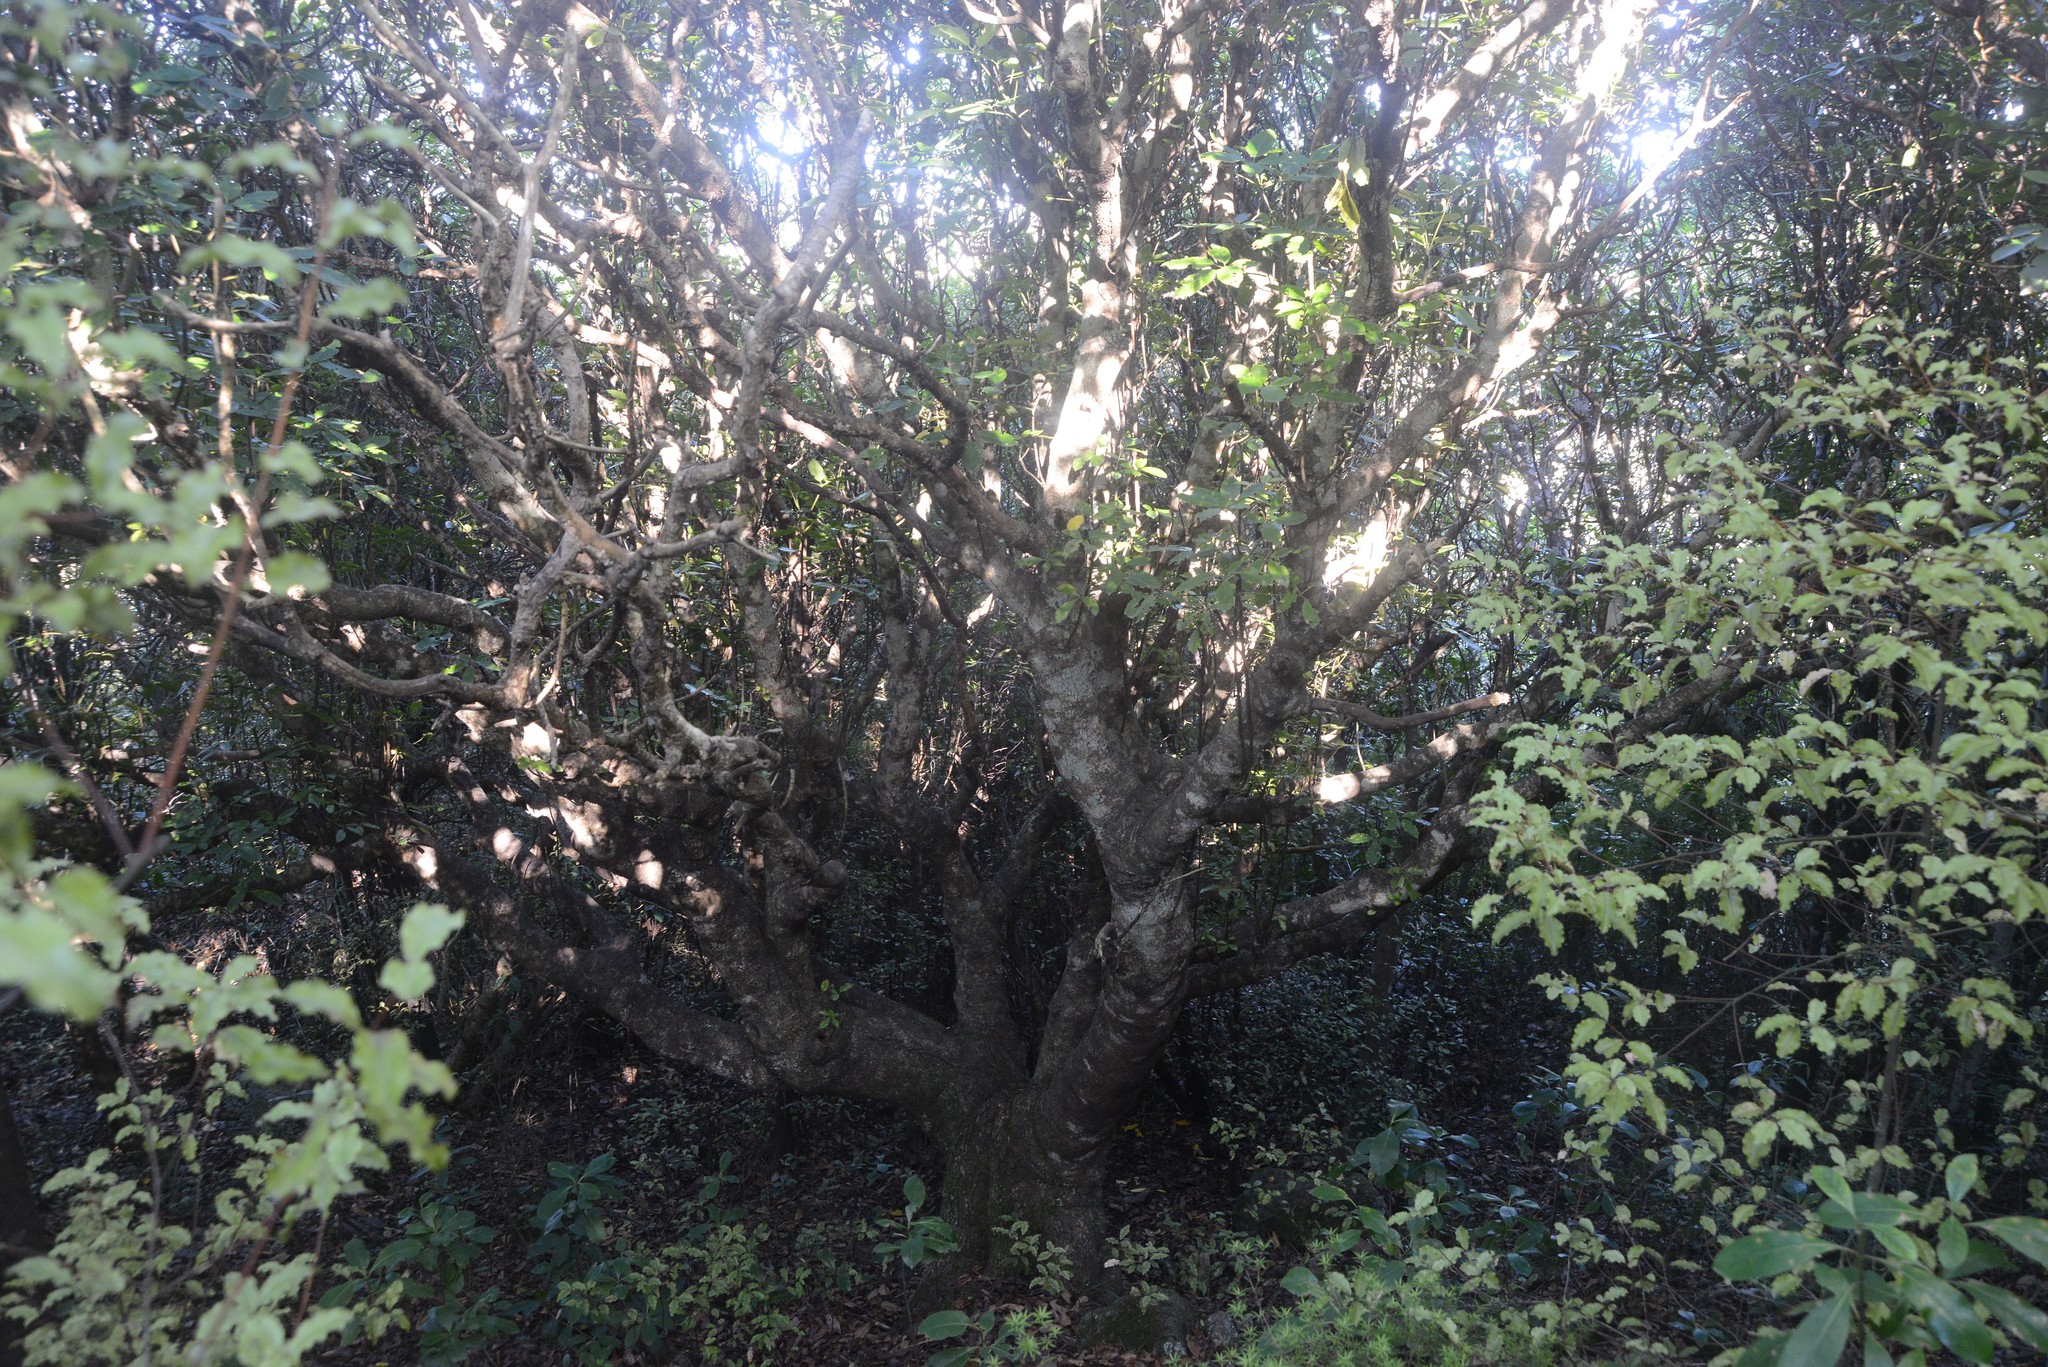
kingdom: Plantae
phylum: Tracheophyta
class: Magnoliopsida
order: Apiales
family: Araliaceae
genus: Neopanax
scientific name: Neopanax arboreus
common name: Five-fingers
